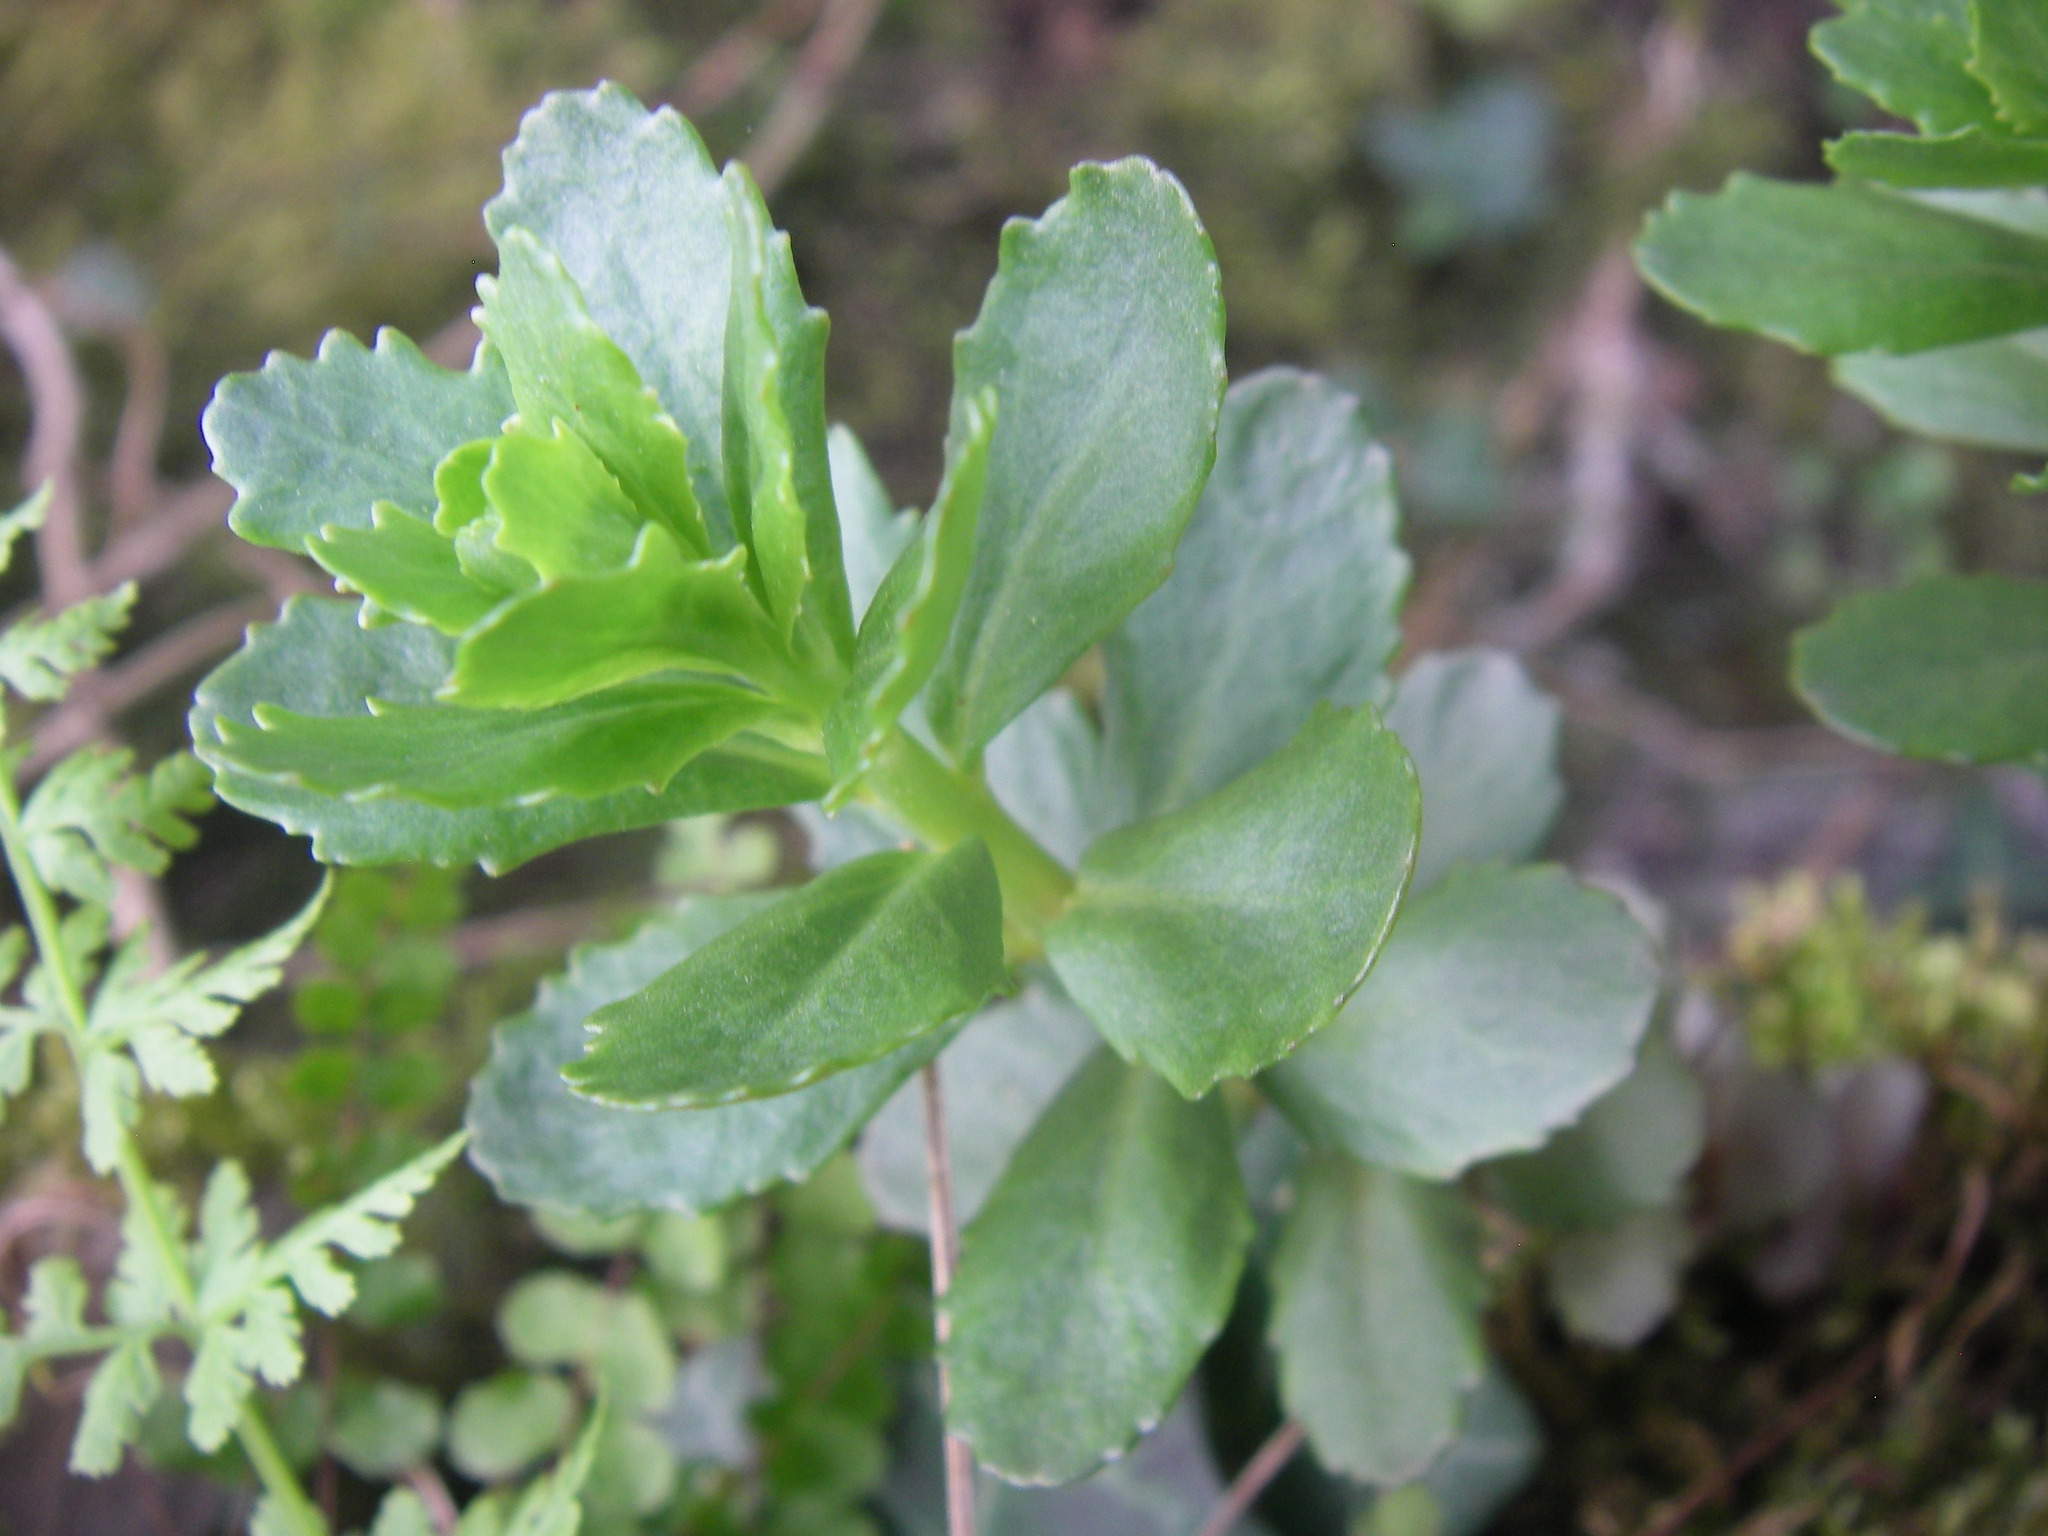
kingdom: Plantae
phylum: Tracheophyta
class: Magnoliopsida
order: Saxifragales
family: Crassulaceae
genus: Hylotelephium
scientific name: Hylotelephium telephium
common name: Live-forever
